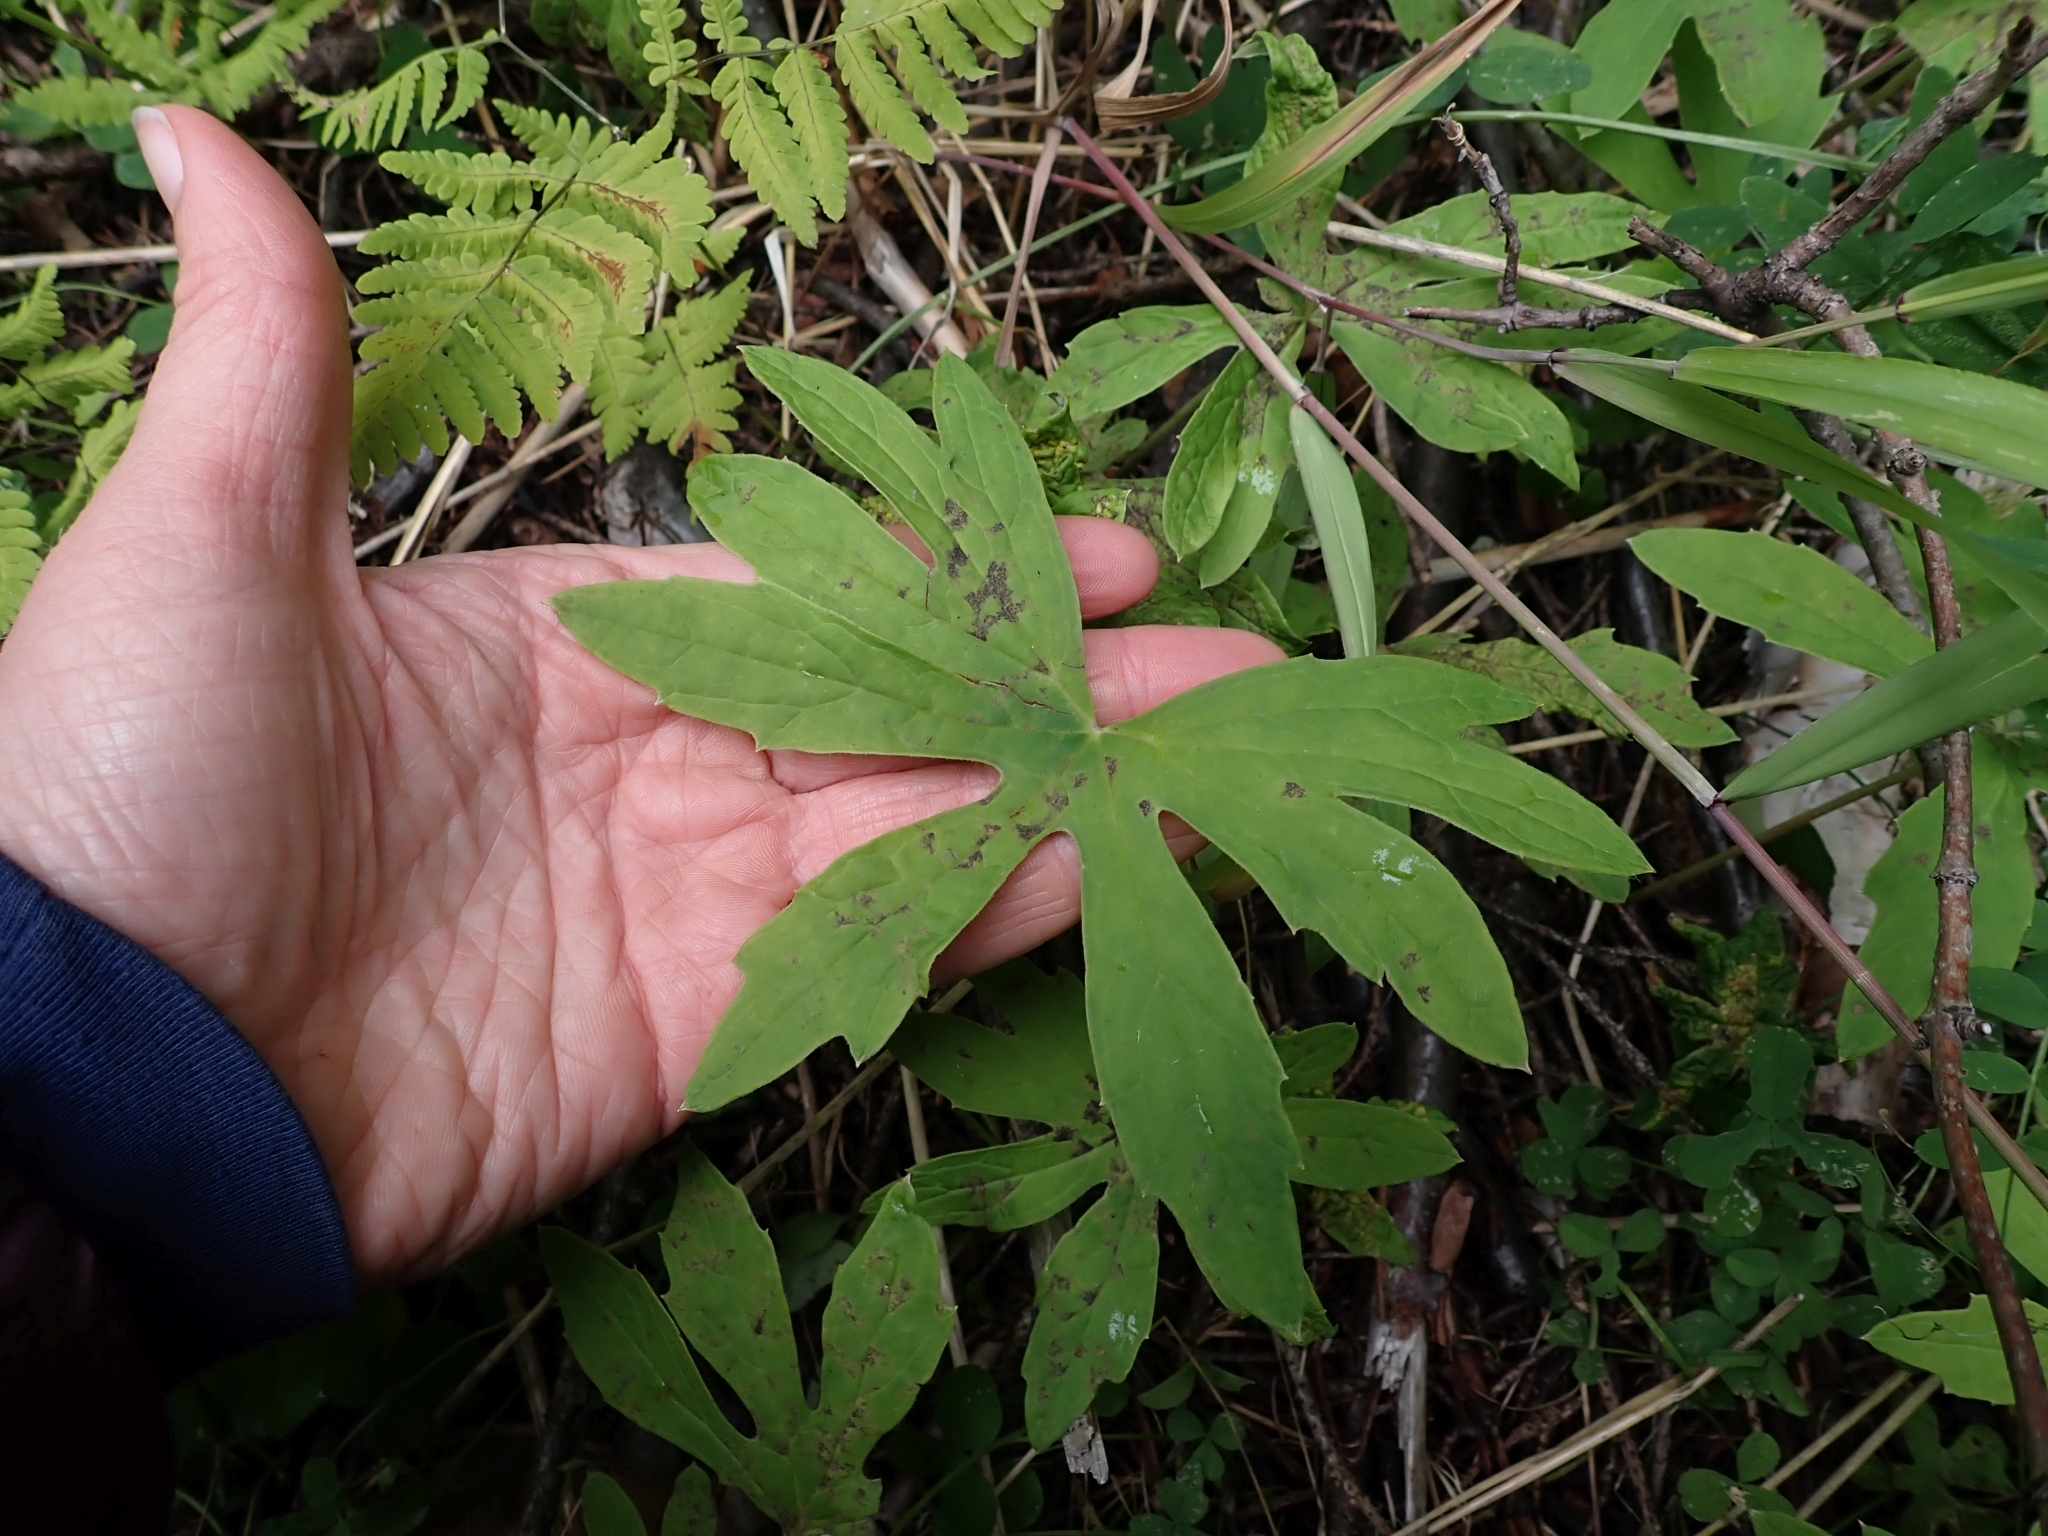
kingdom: Plantae
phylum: Tracheophyta
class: Magnoliopsida
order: Asterales
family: Asteraceae
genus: Petasites
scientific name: Petasites frigidus
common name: Arctic butterbur
